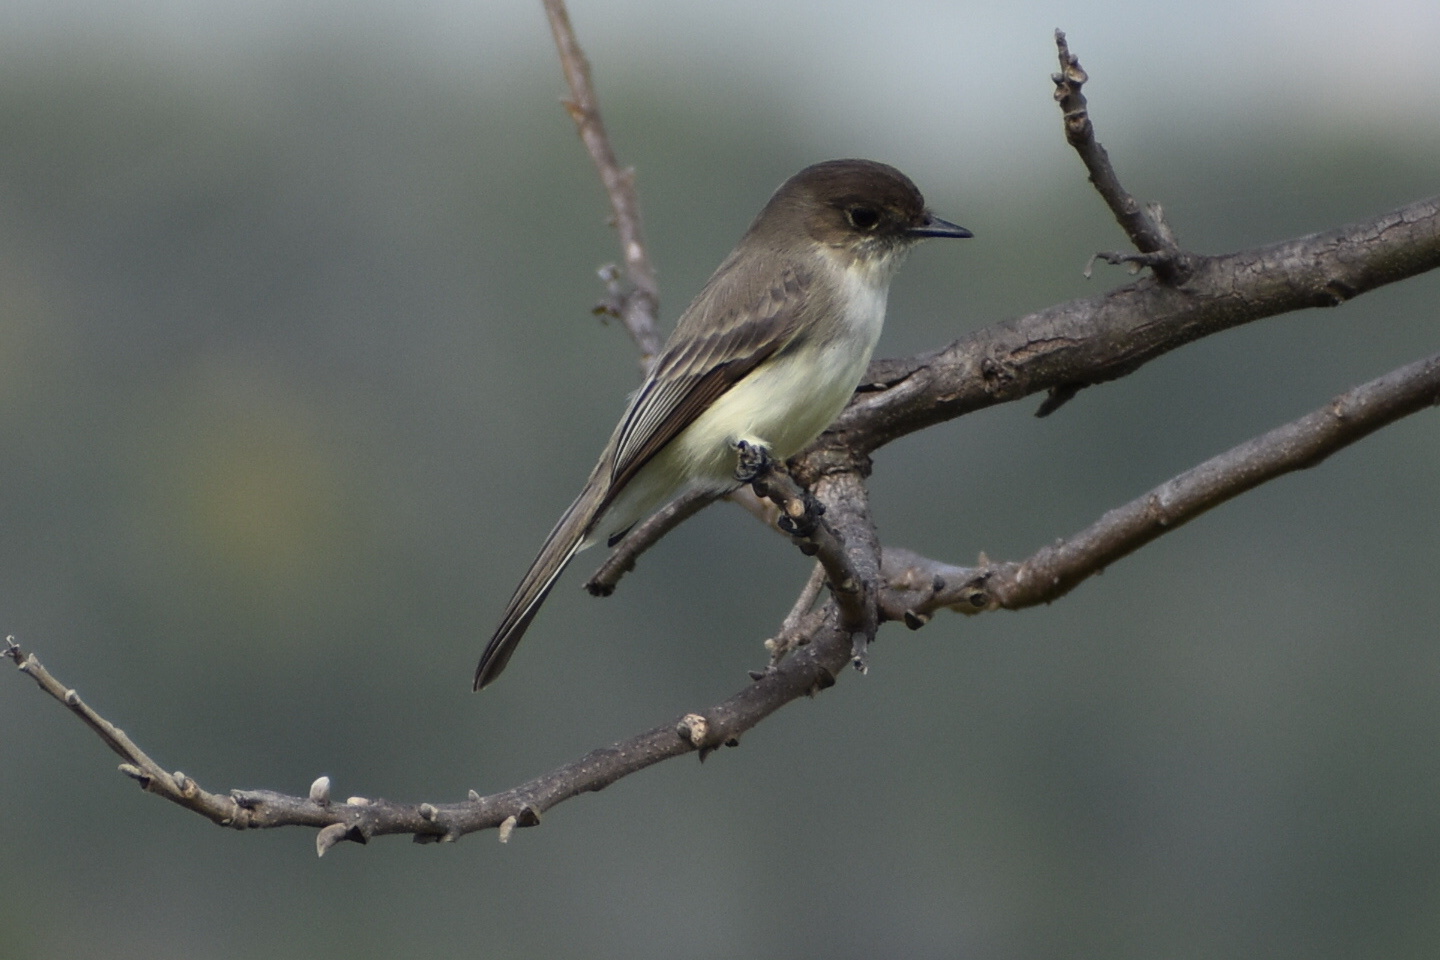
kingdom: Animalia
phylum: Chordata
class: Aves
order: Passeriformes
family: Tyrannidae
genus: Sayornis
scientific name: Sayornis phoebe
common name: Eastern phoebe
